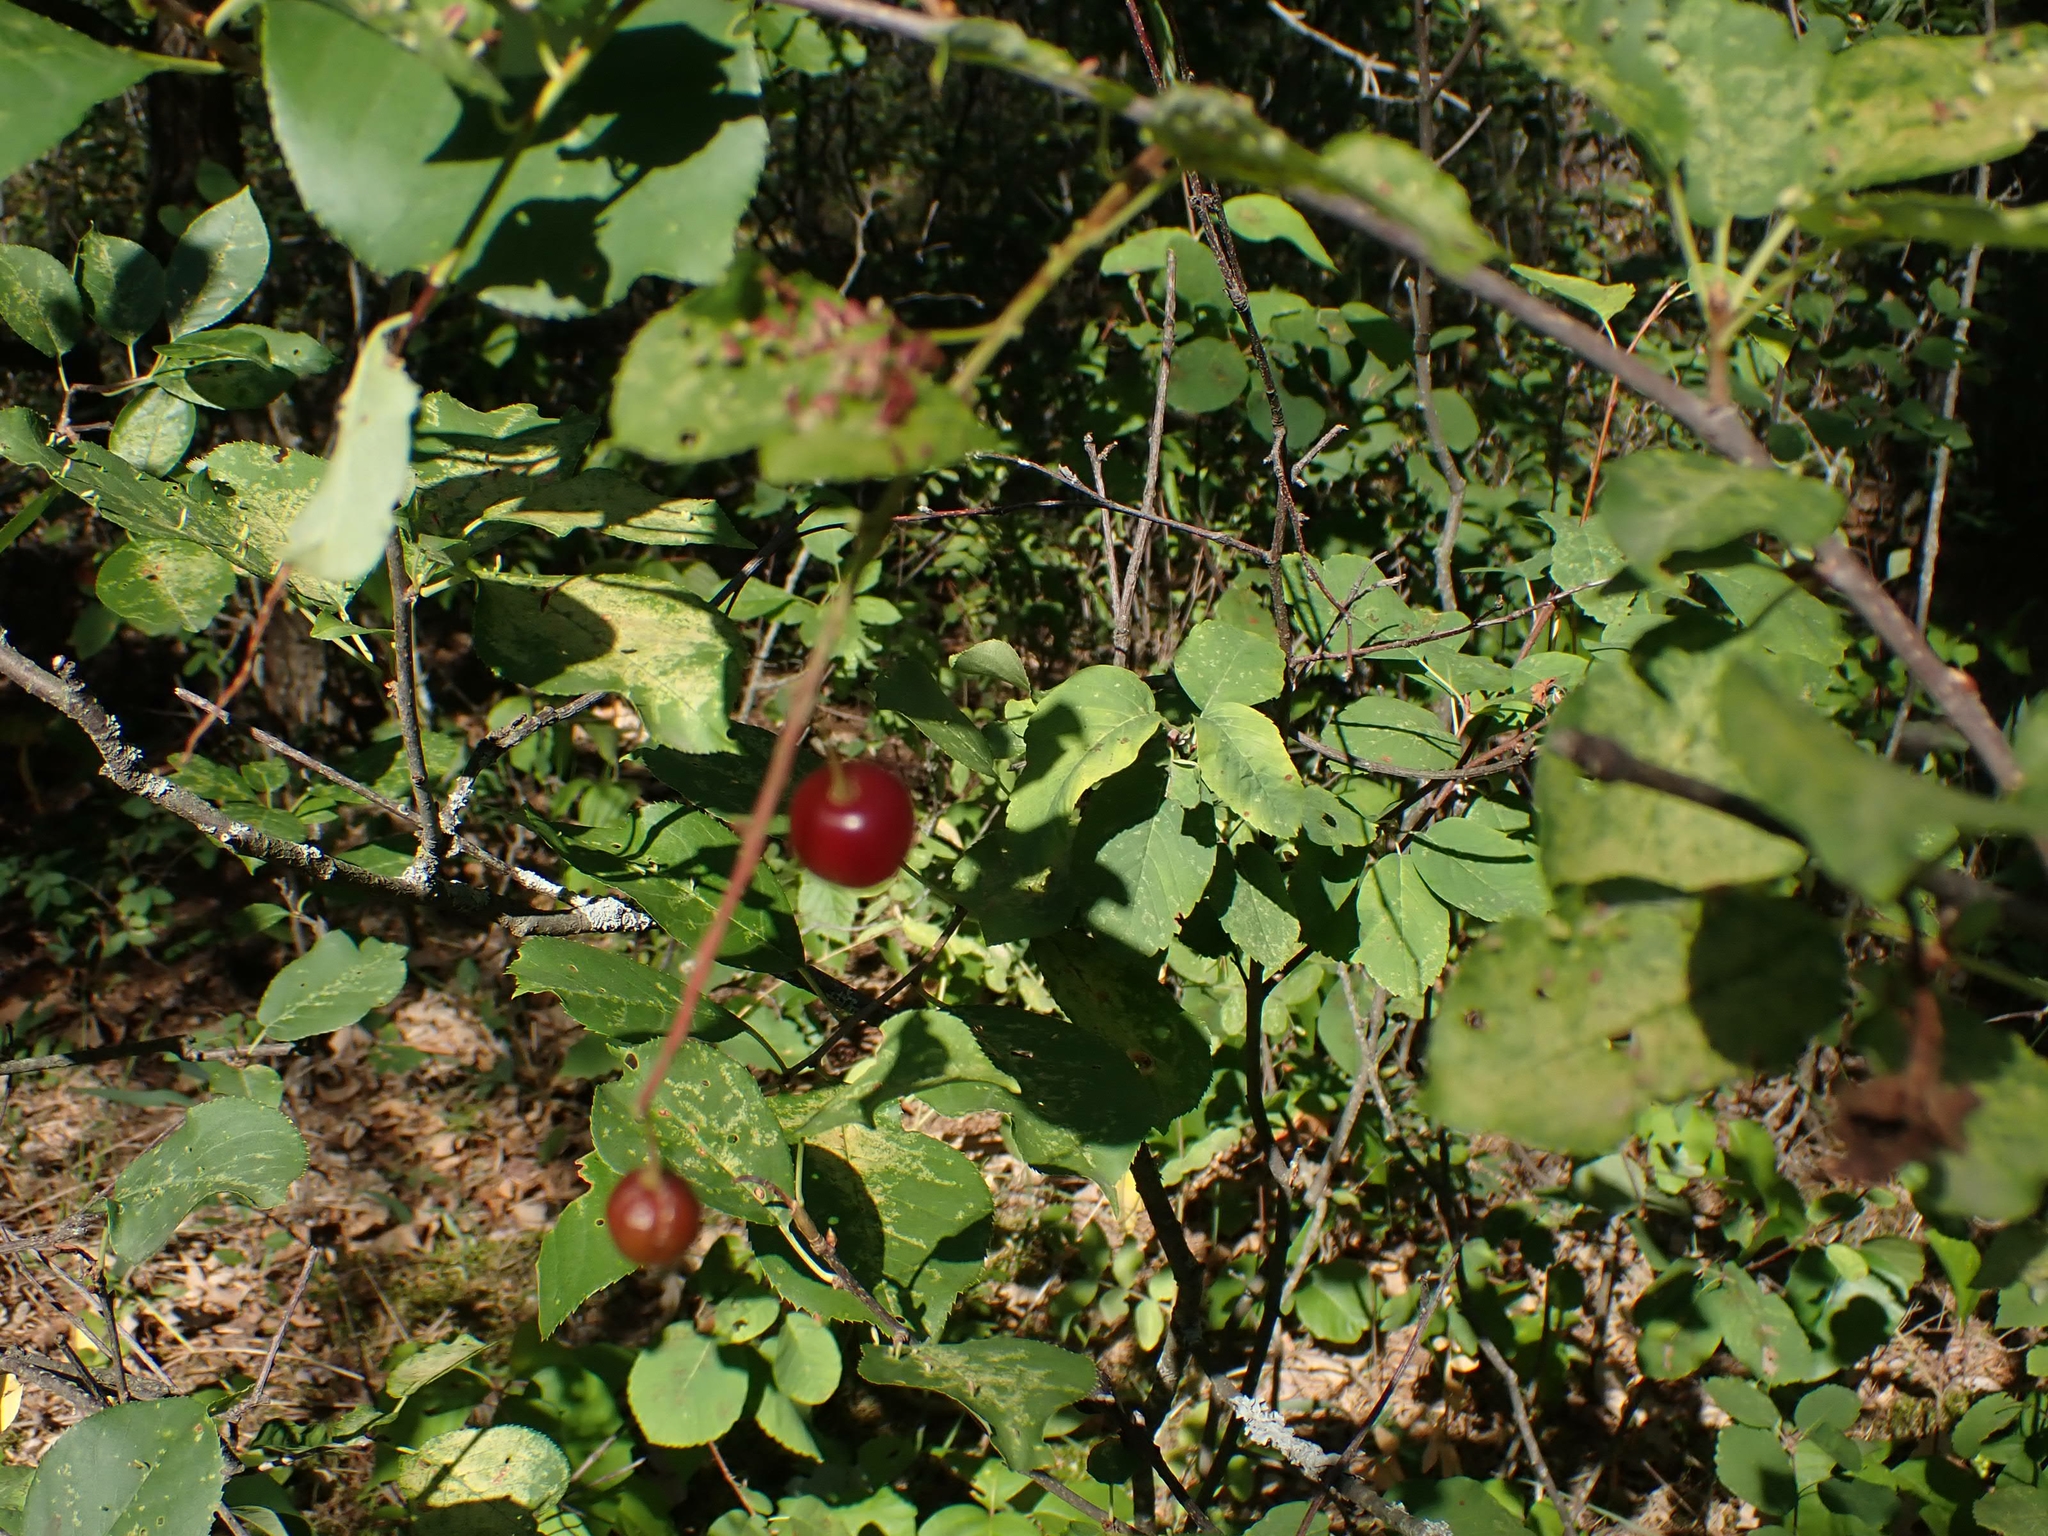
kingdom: Plantae
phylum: Tracheophyta
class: Magnoliopsida
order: Rosales
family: Rosaceae
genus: Prunus
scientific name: Prunus virginiana
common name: Chokecherry
